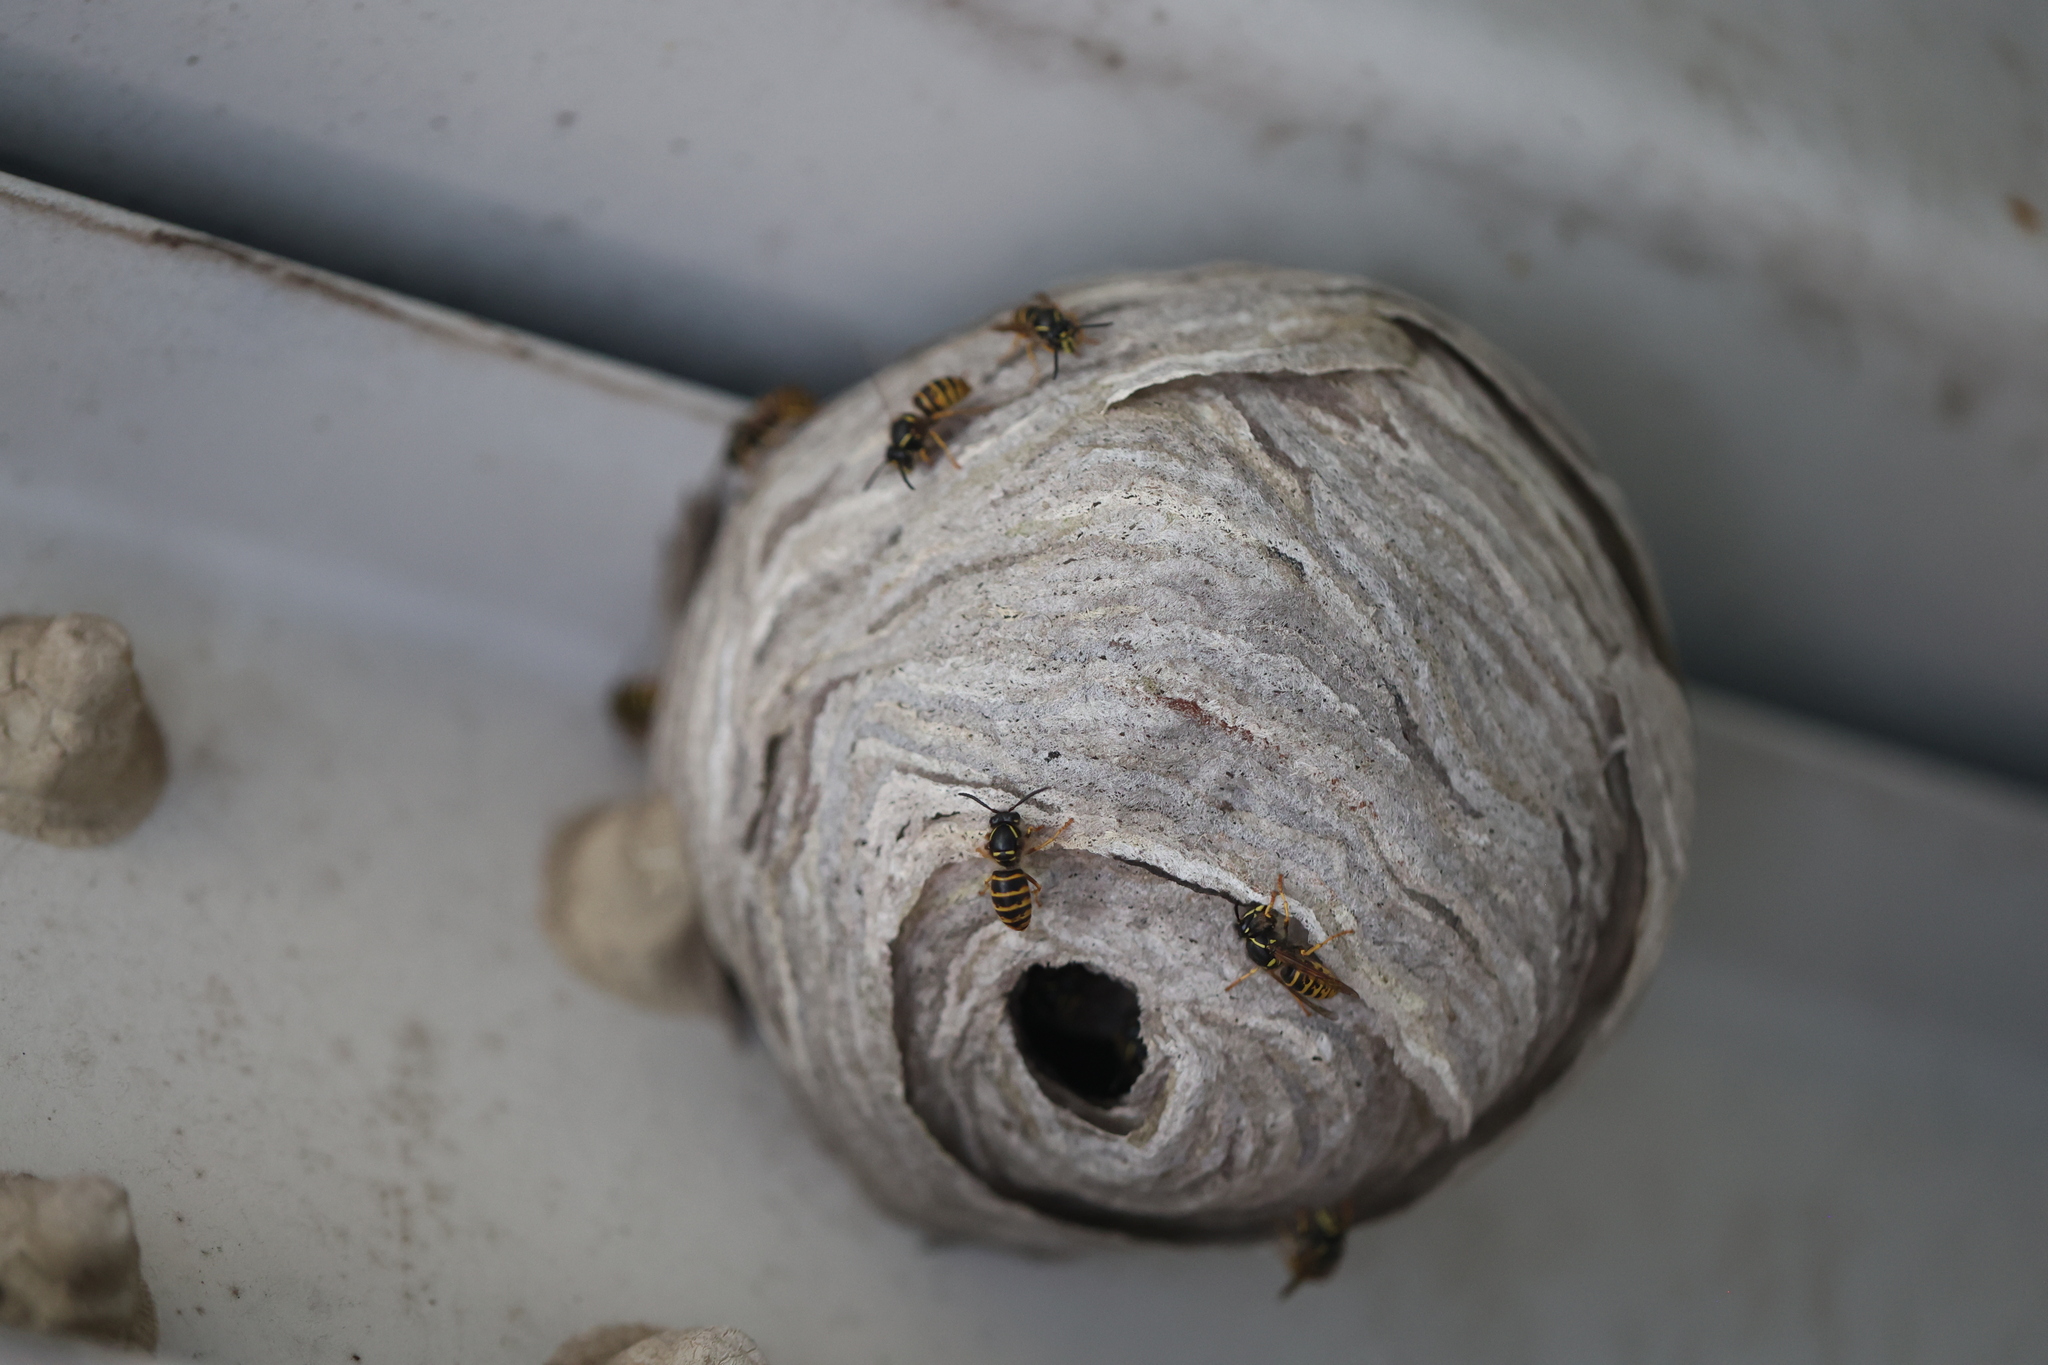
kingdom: Animalia
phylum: Arthropoda
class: Insecta
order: Hymenoptera
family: Vespidae
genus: Dolichovespula
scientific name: Dolichovespula saxonica
